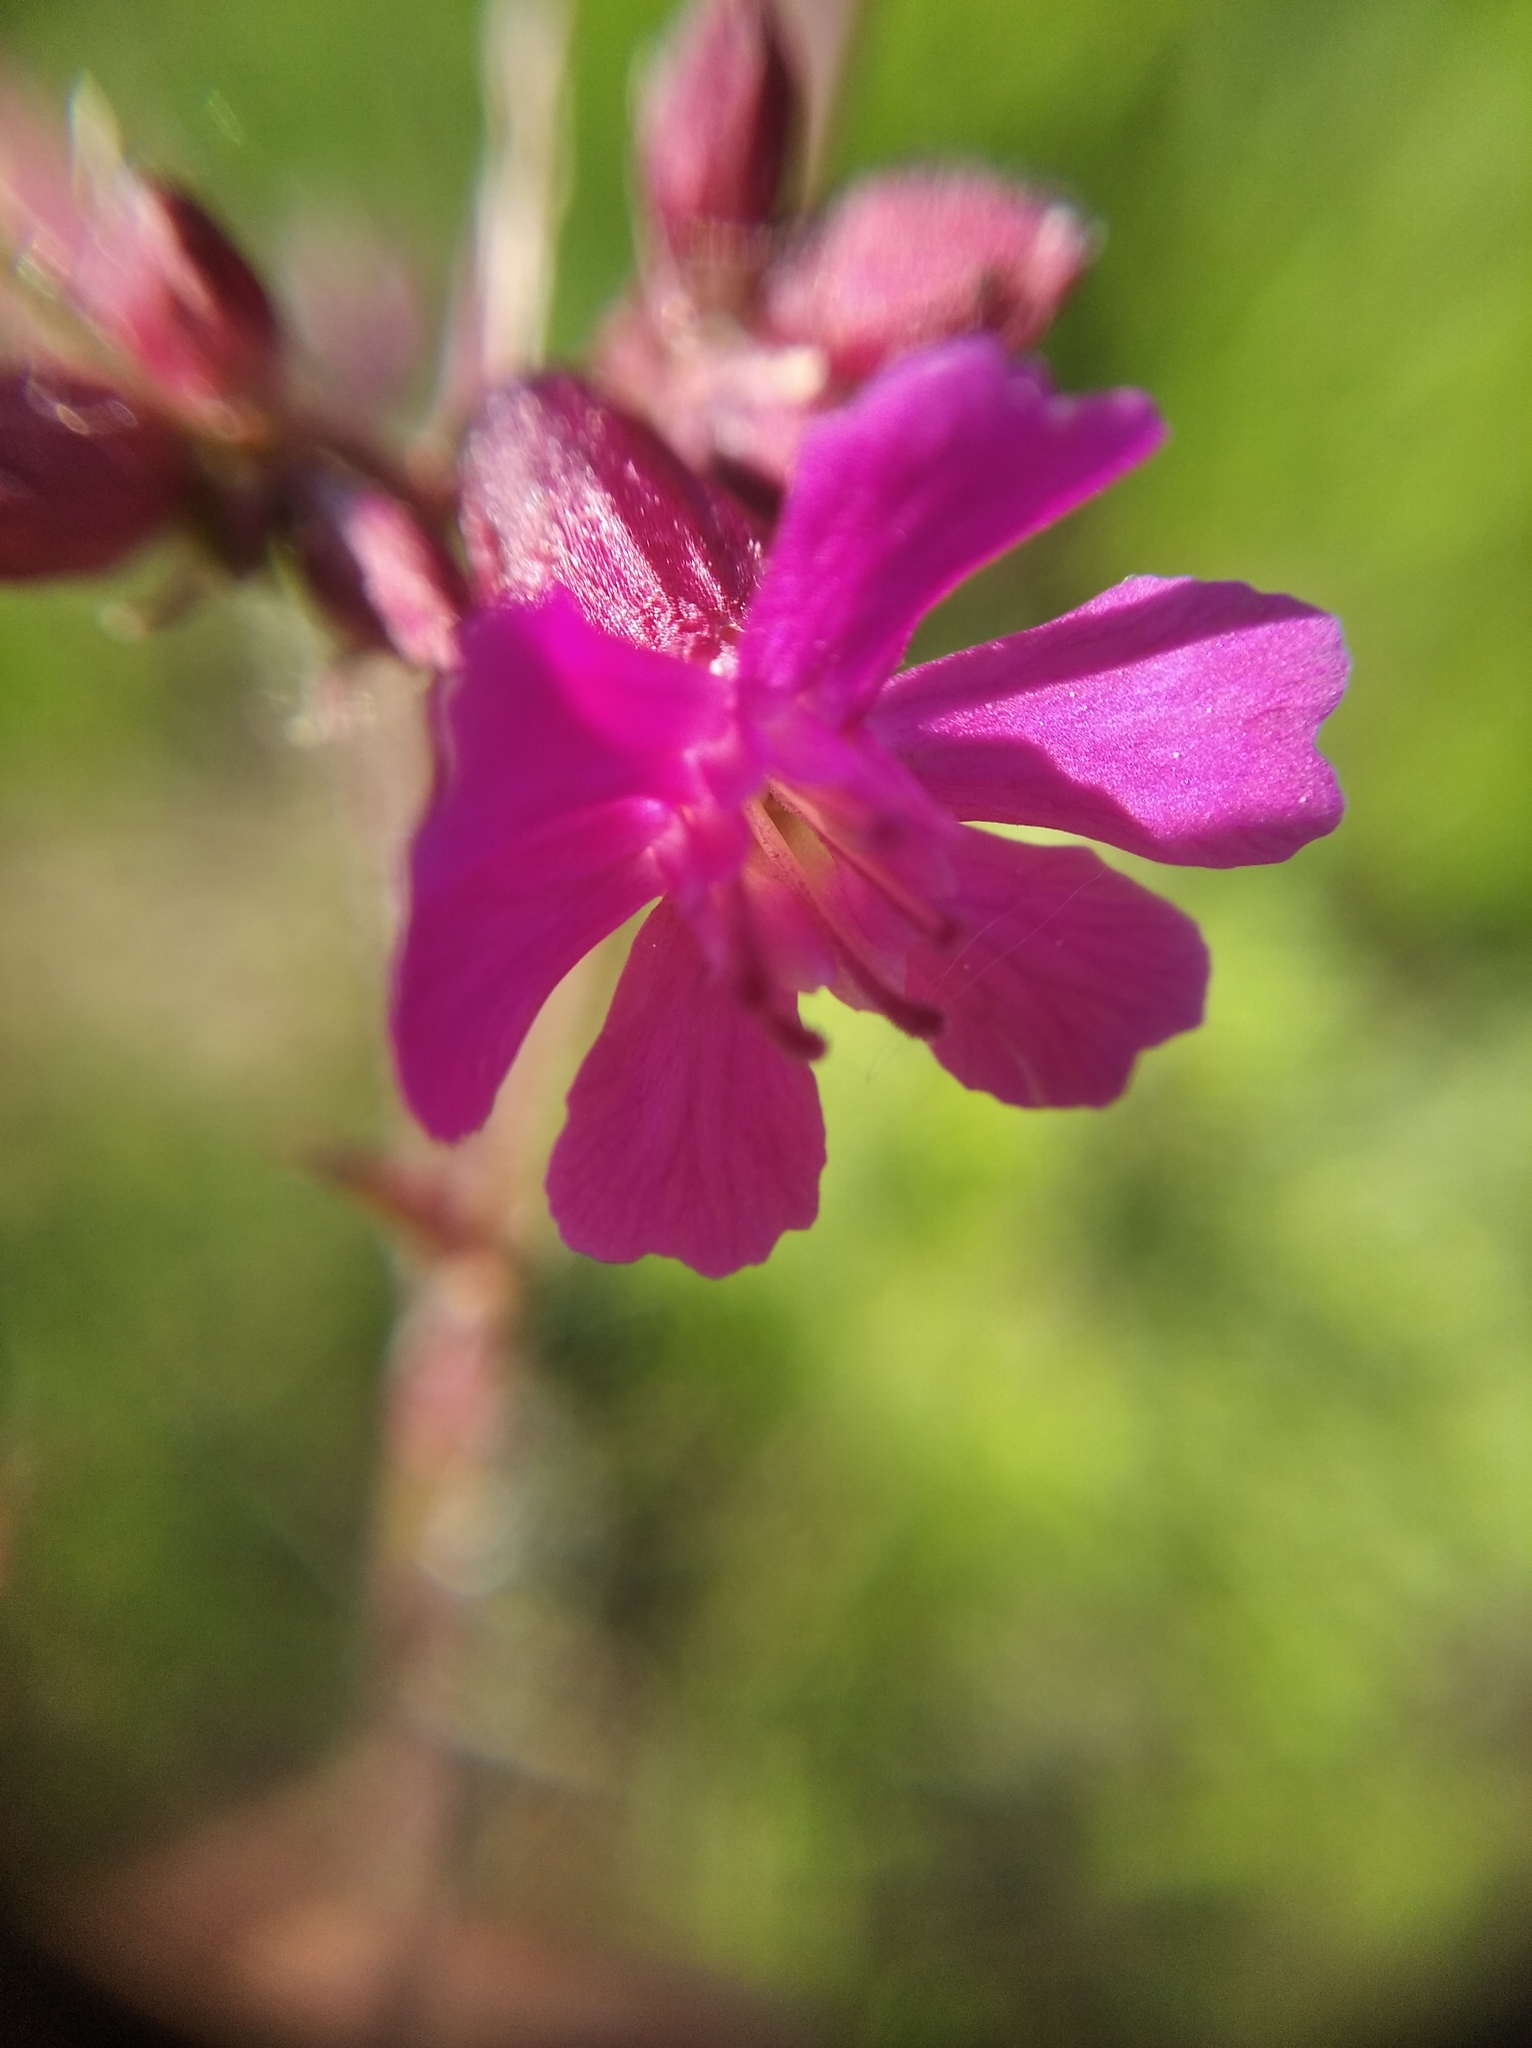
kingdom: Plantae
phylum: Tracheophyta
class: Magnoliopsida
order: Caryophyllales
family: Caryophyllaceae
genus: Viscaria
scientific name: Viscaria vulgaris
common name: Clammy campion
